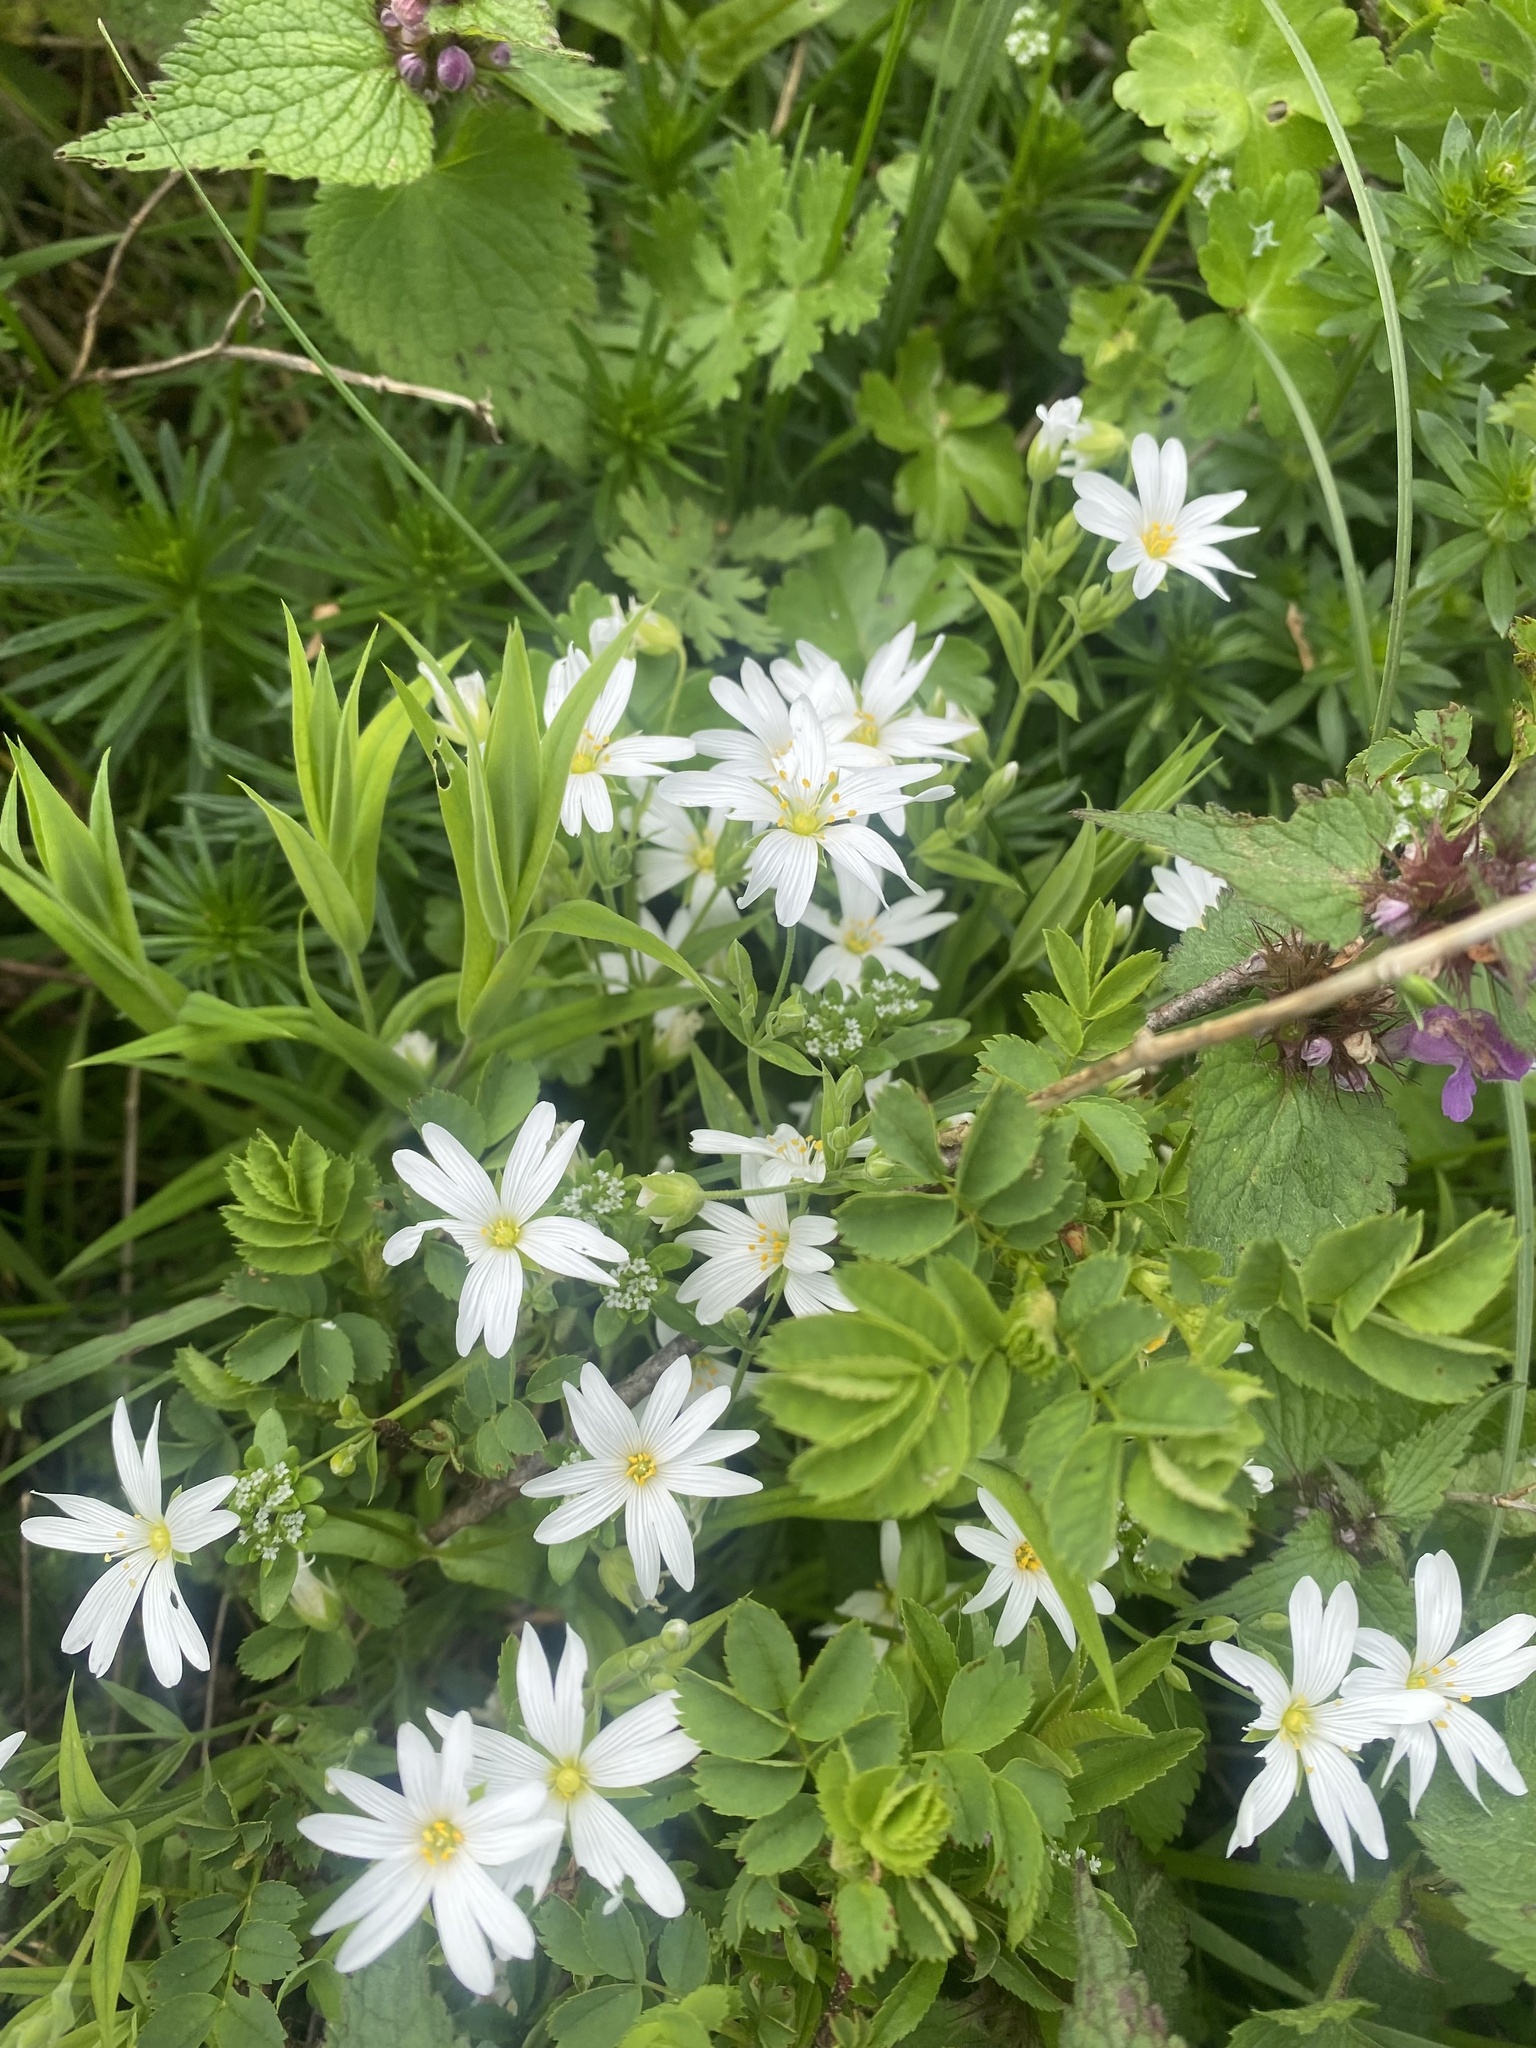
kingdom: Plantae
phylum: Tracheophyta
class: Magnoliopsida
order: Caryophyllales
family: Caryophyllaceae
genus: Rabelera
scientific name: Rabelera holostea
